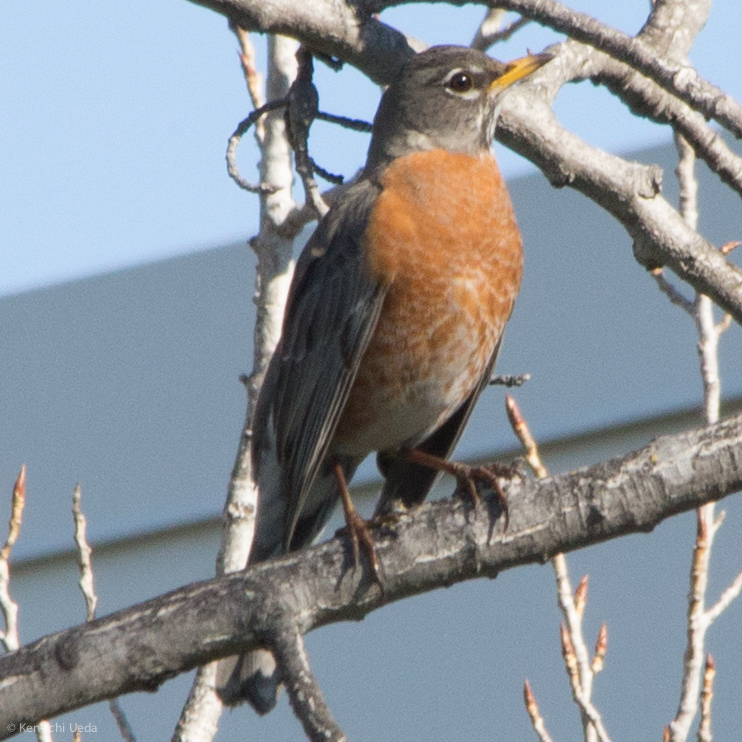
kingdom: Animalia
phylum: Chordata
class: Aves
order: Passeriformes
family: Turdidae
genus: Turdus
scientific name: Turdus migratorius
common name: American robin
